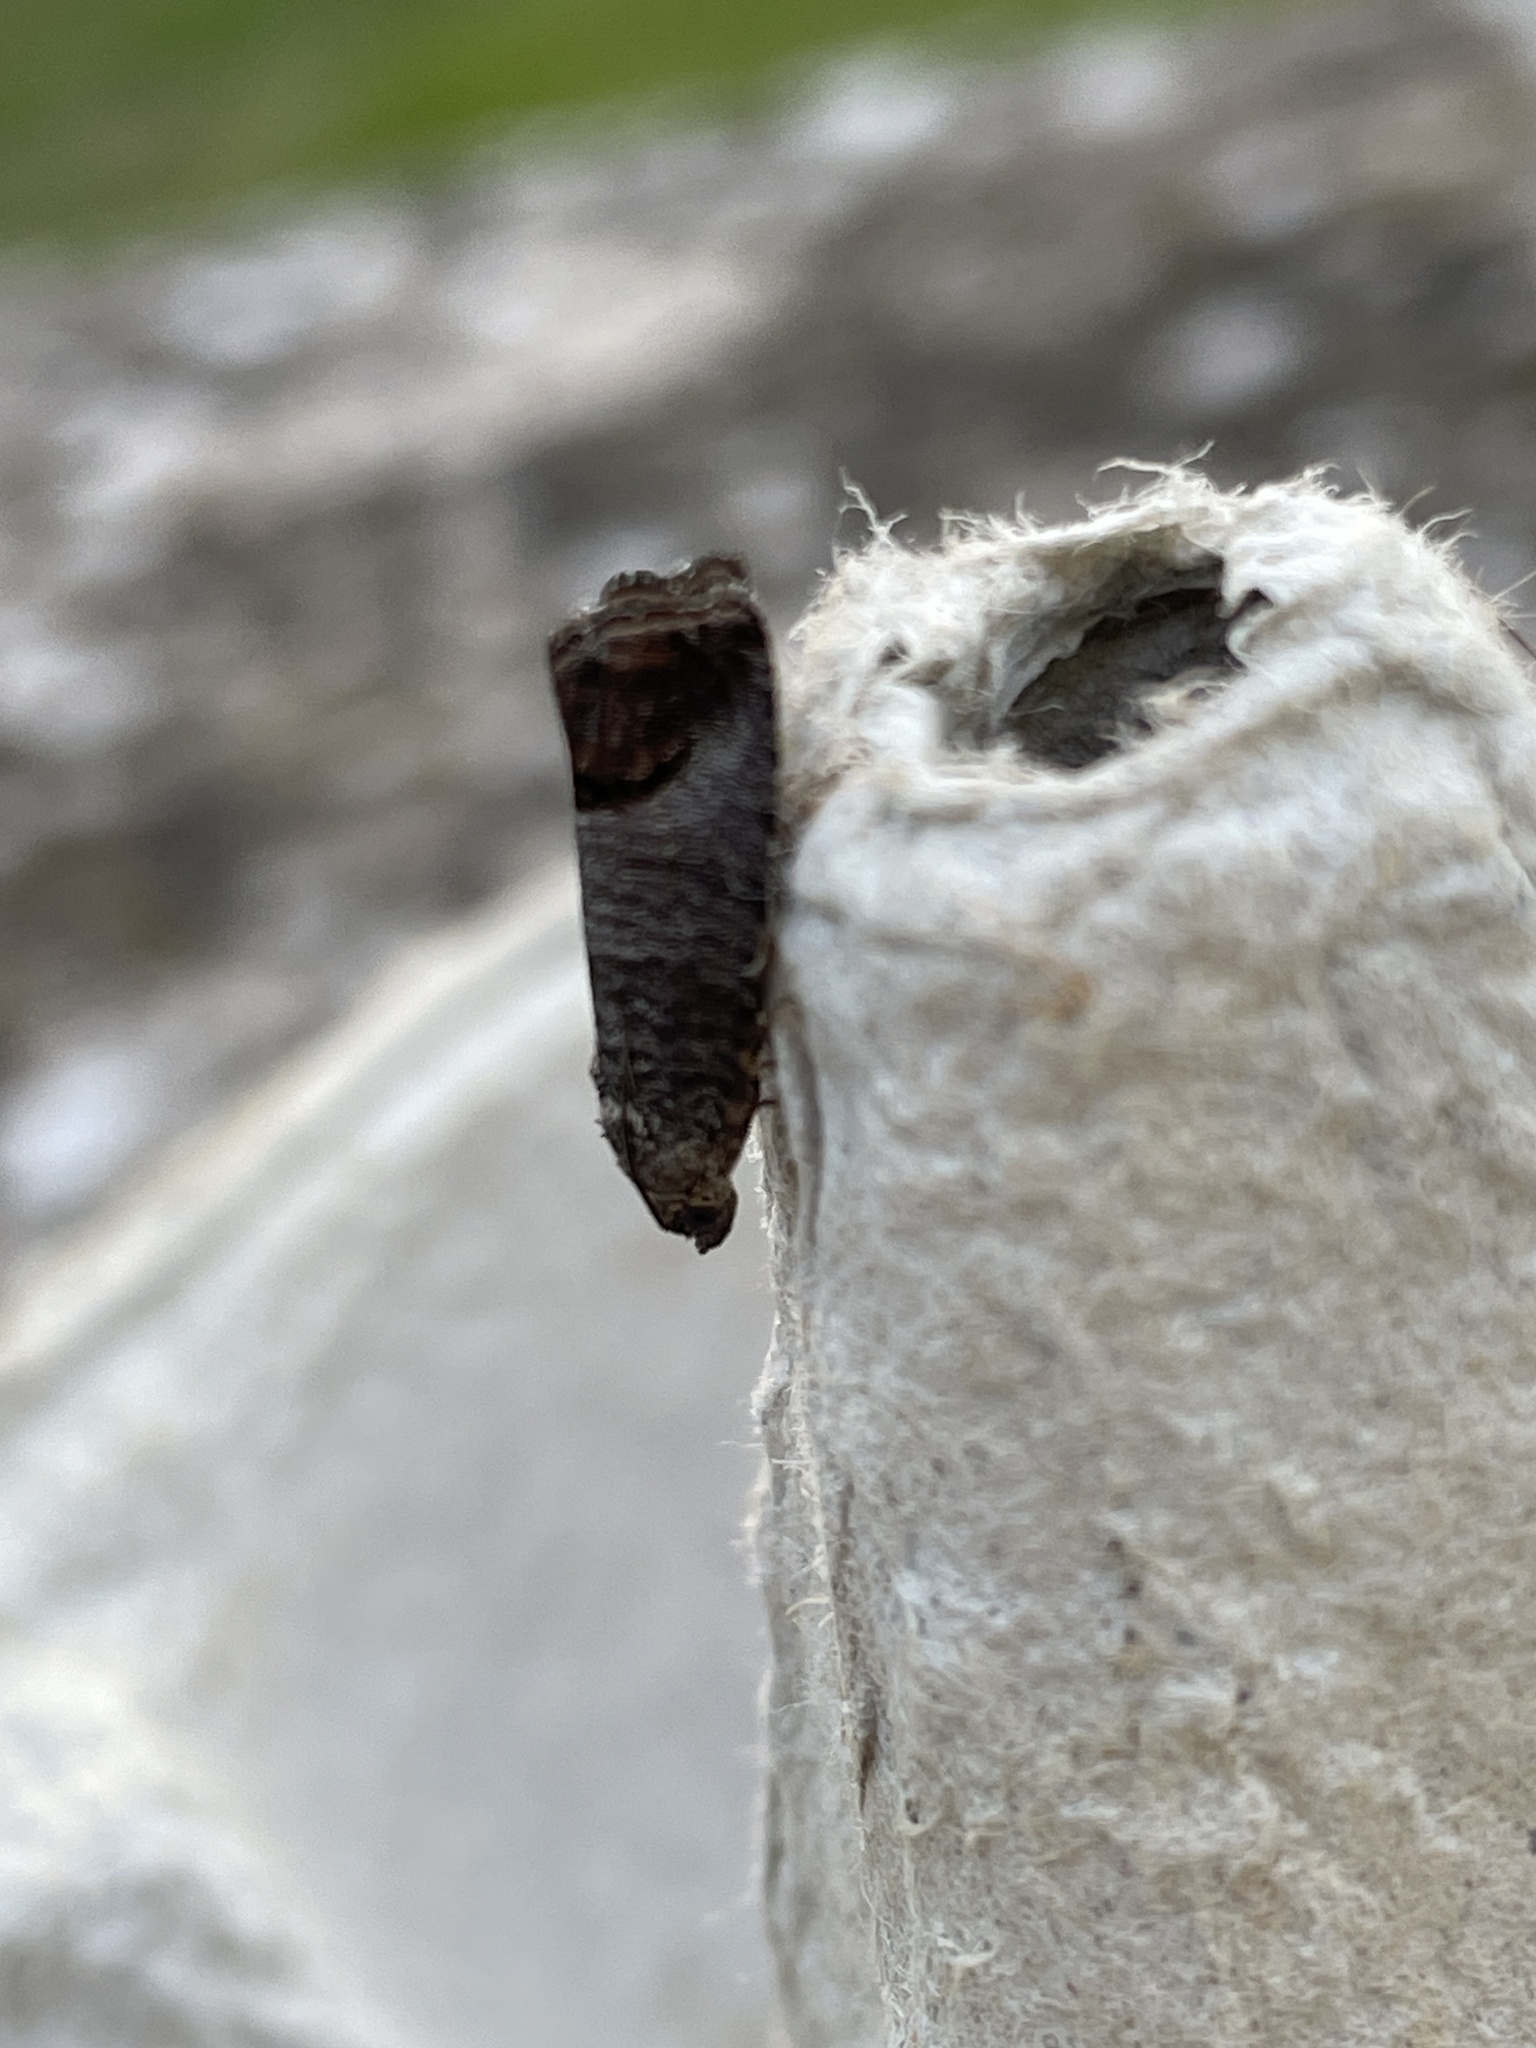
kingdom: Animalia
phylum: Arthropoda
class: Insecta
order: Lepidoptera
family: Tortricidae
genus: Cydia
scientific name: Cydia pomonella
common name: Codling moth
